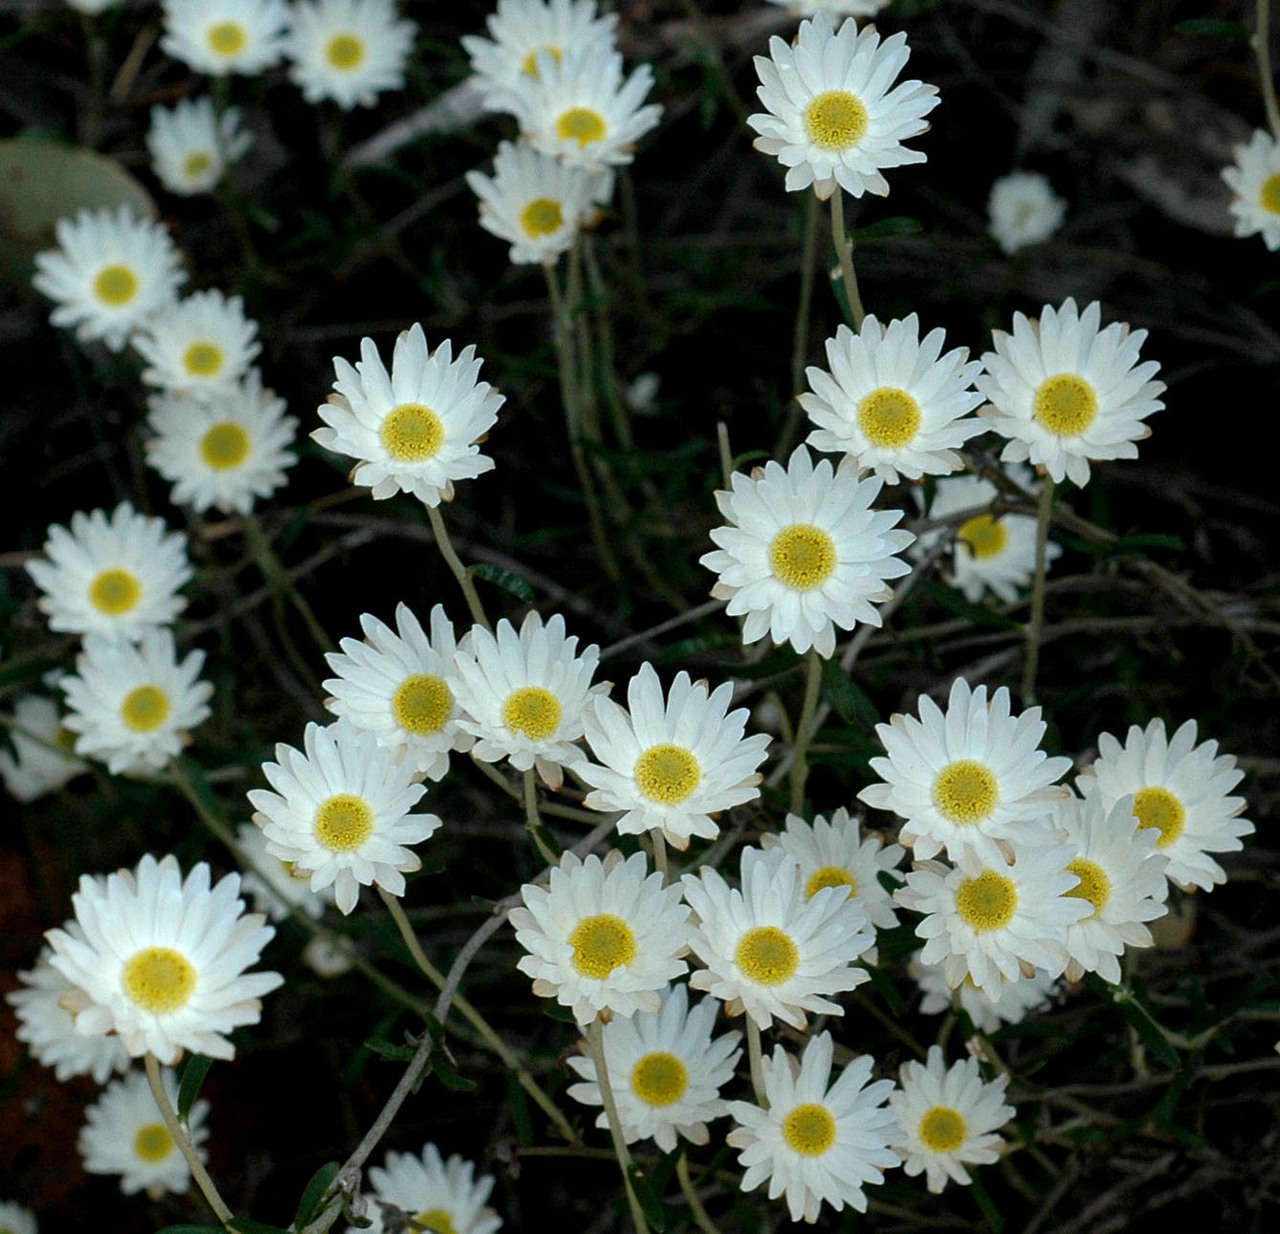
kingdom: Plantae
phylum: Tracheophyta
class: Magnoliopsida
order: Asterales
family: Asteraceae
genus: Argentipallium
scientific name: Argentipallium obtusifolium
